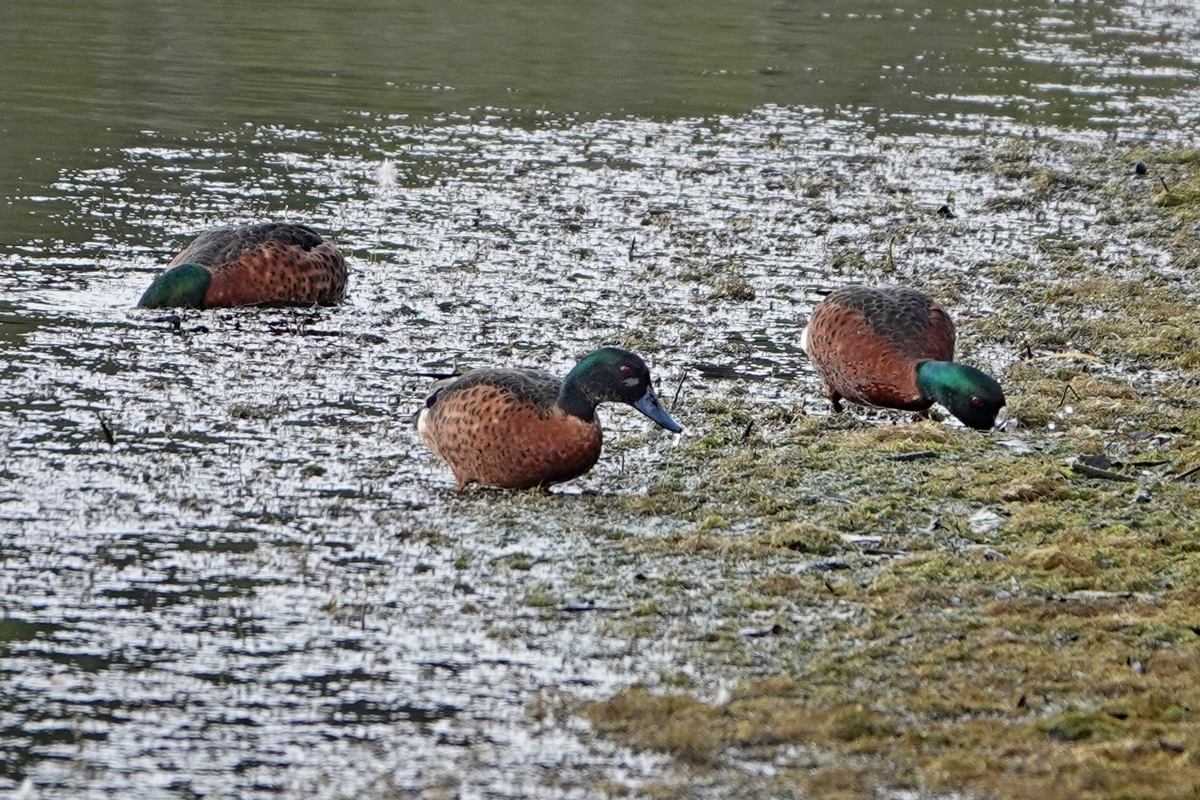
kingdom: Animalia
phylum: Chordata
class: Aves
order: Anseriformes
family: Anatidae
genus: Anas
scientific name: Anas castanea
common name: Chestnut teal
